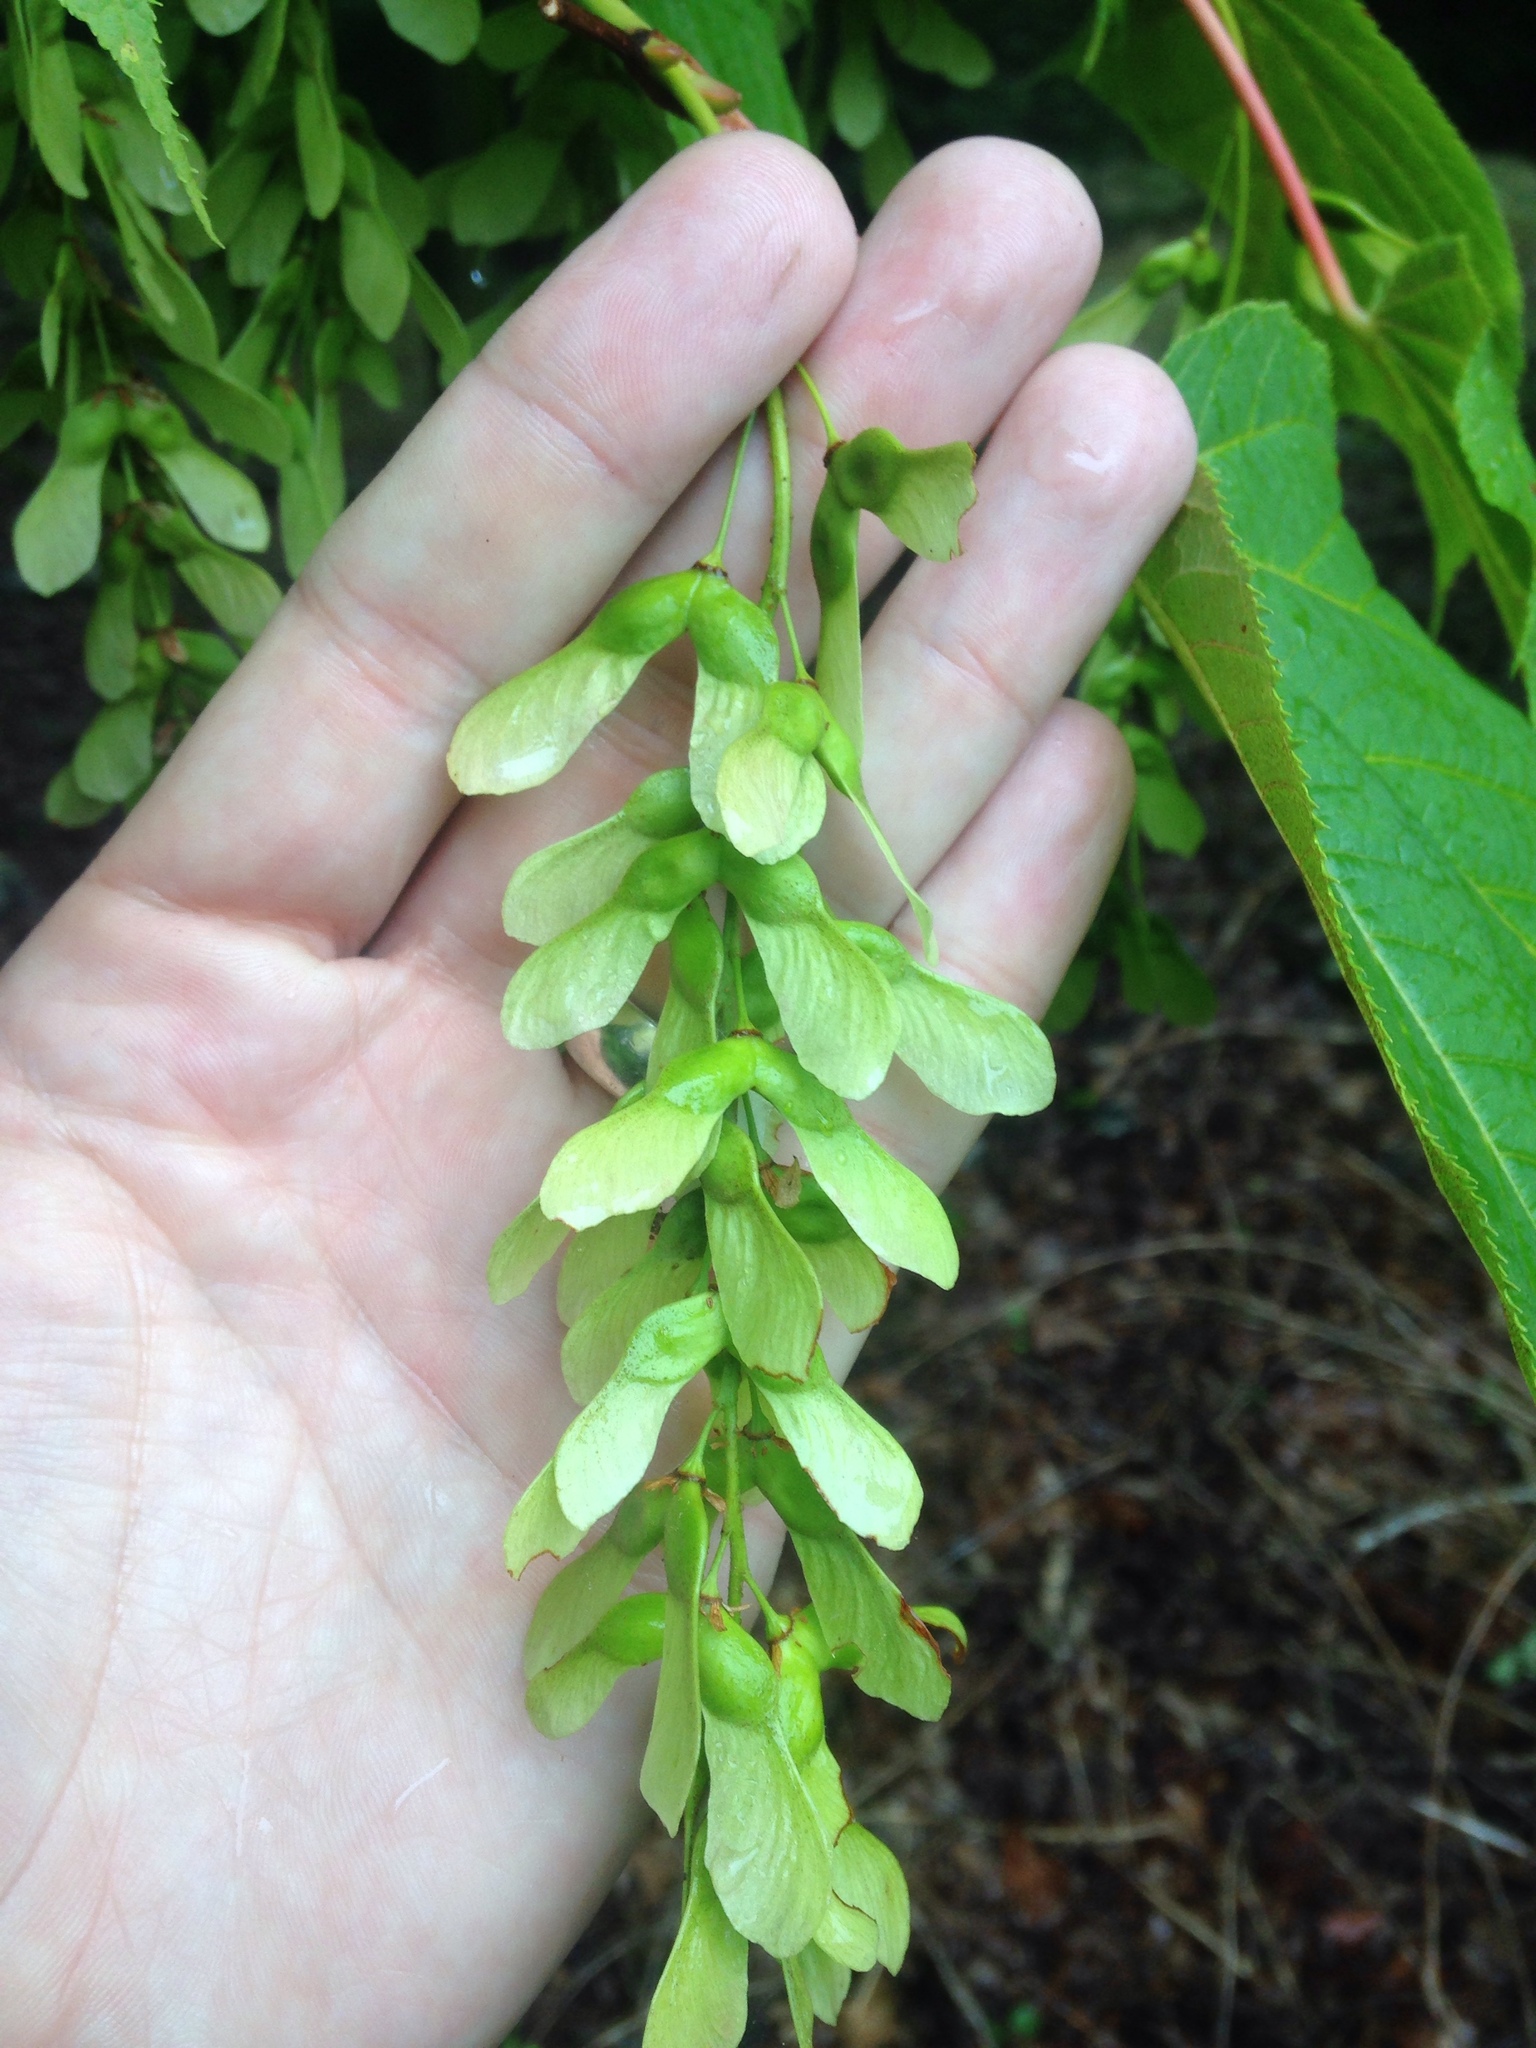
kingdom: Plantae
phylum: Tracheophyta
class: Magnoliopsida
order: Sapindales
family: Sapindaceae
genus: Acer
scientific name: Acer pensylvanicum
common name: Moosewood
